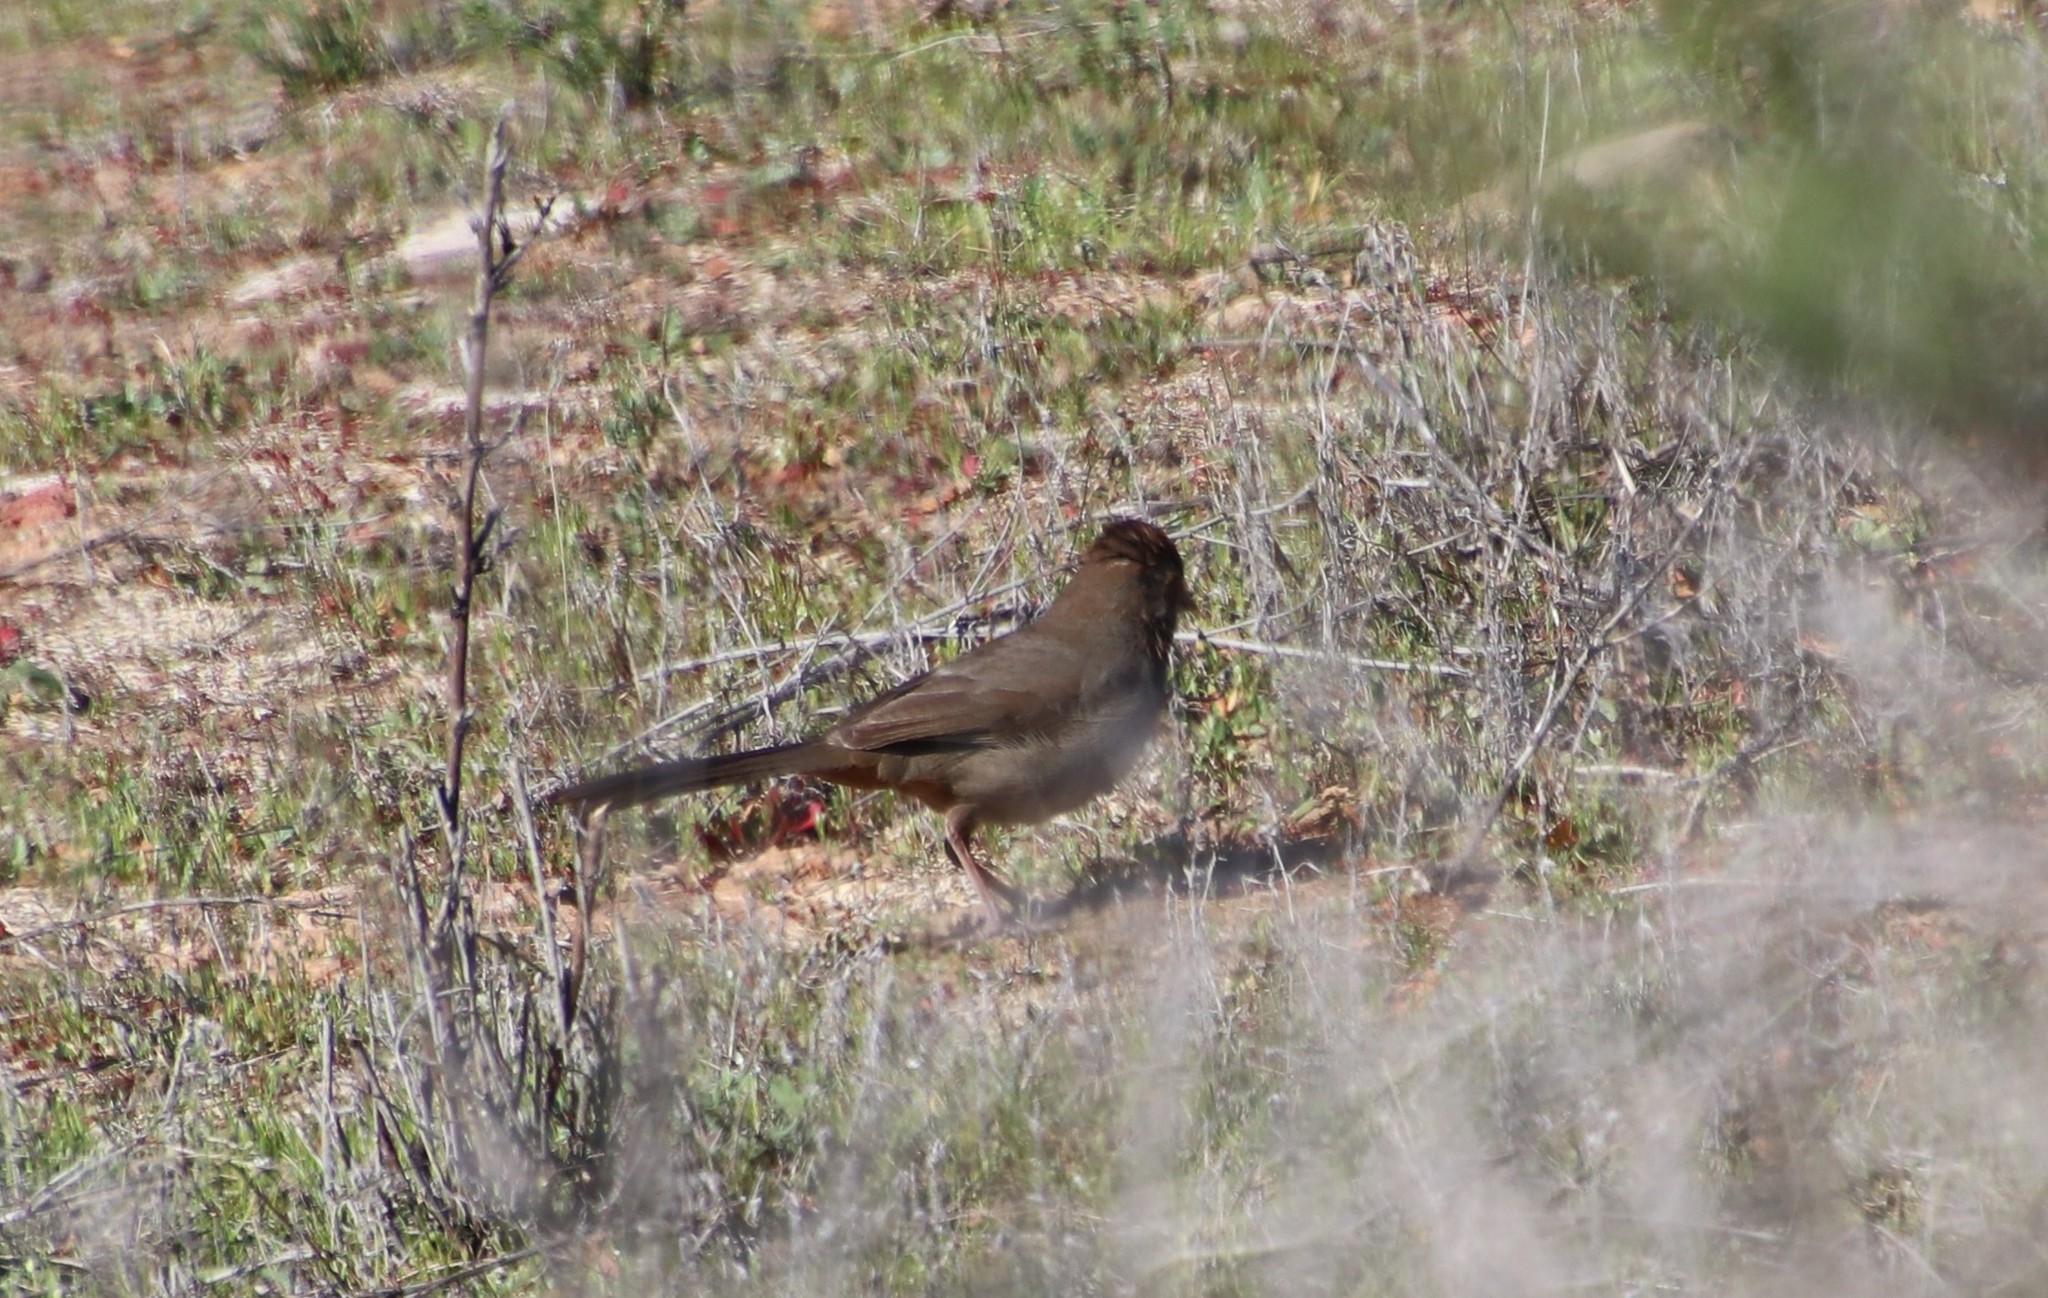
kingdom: Animalia
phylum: Chordata
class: Aves
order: Passeriformes
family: Passerellidae
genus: Melozone
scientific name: Melozone crissalis
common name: California towhee
